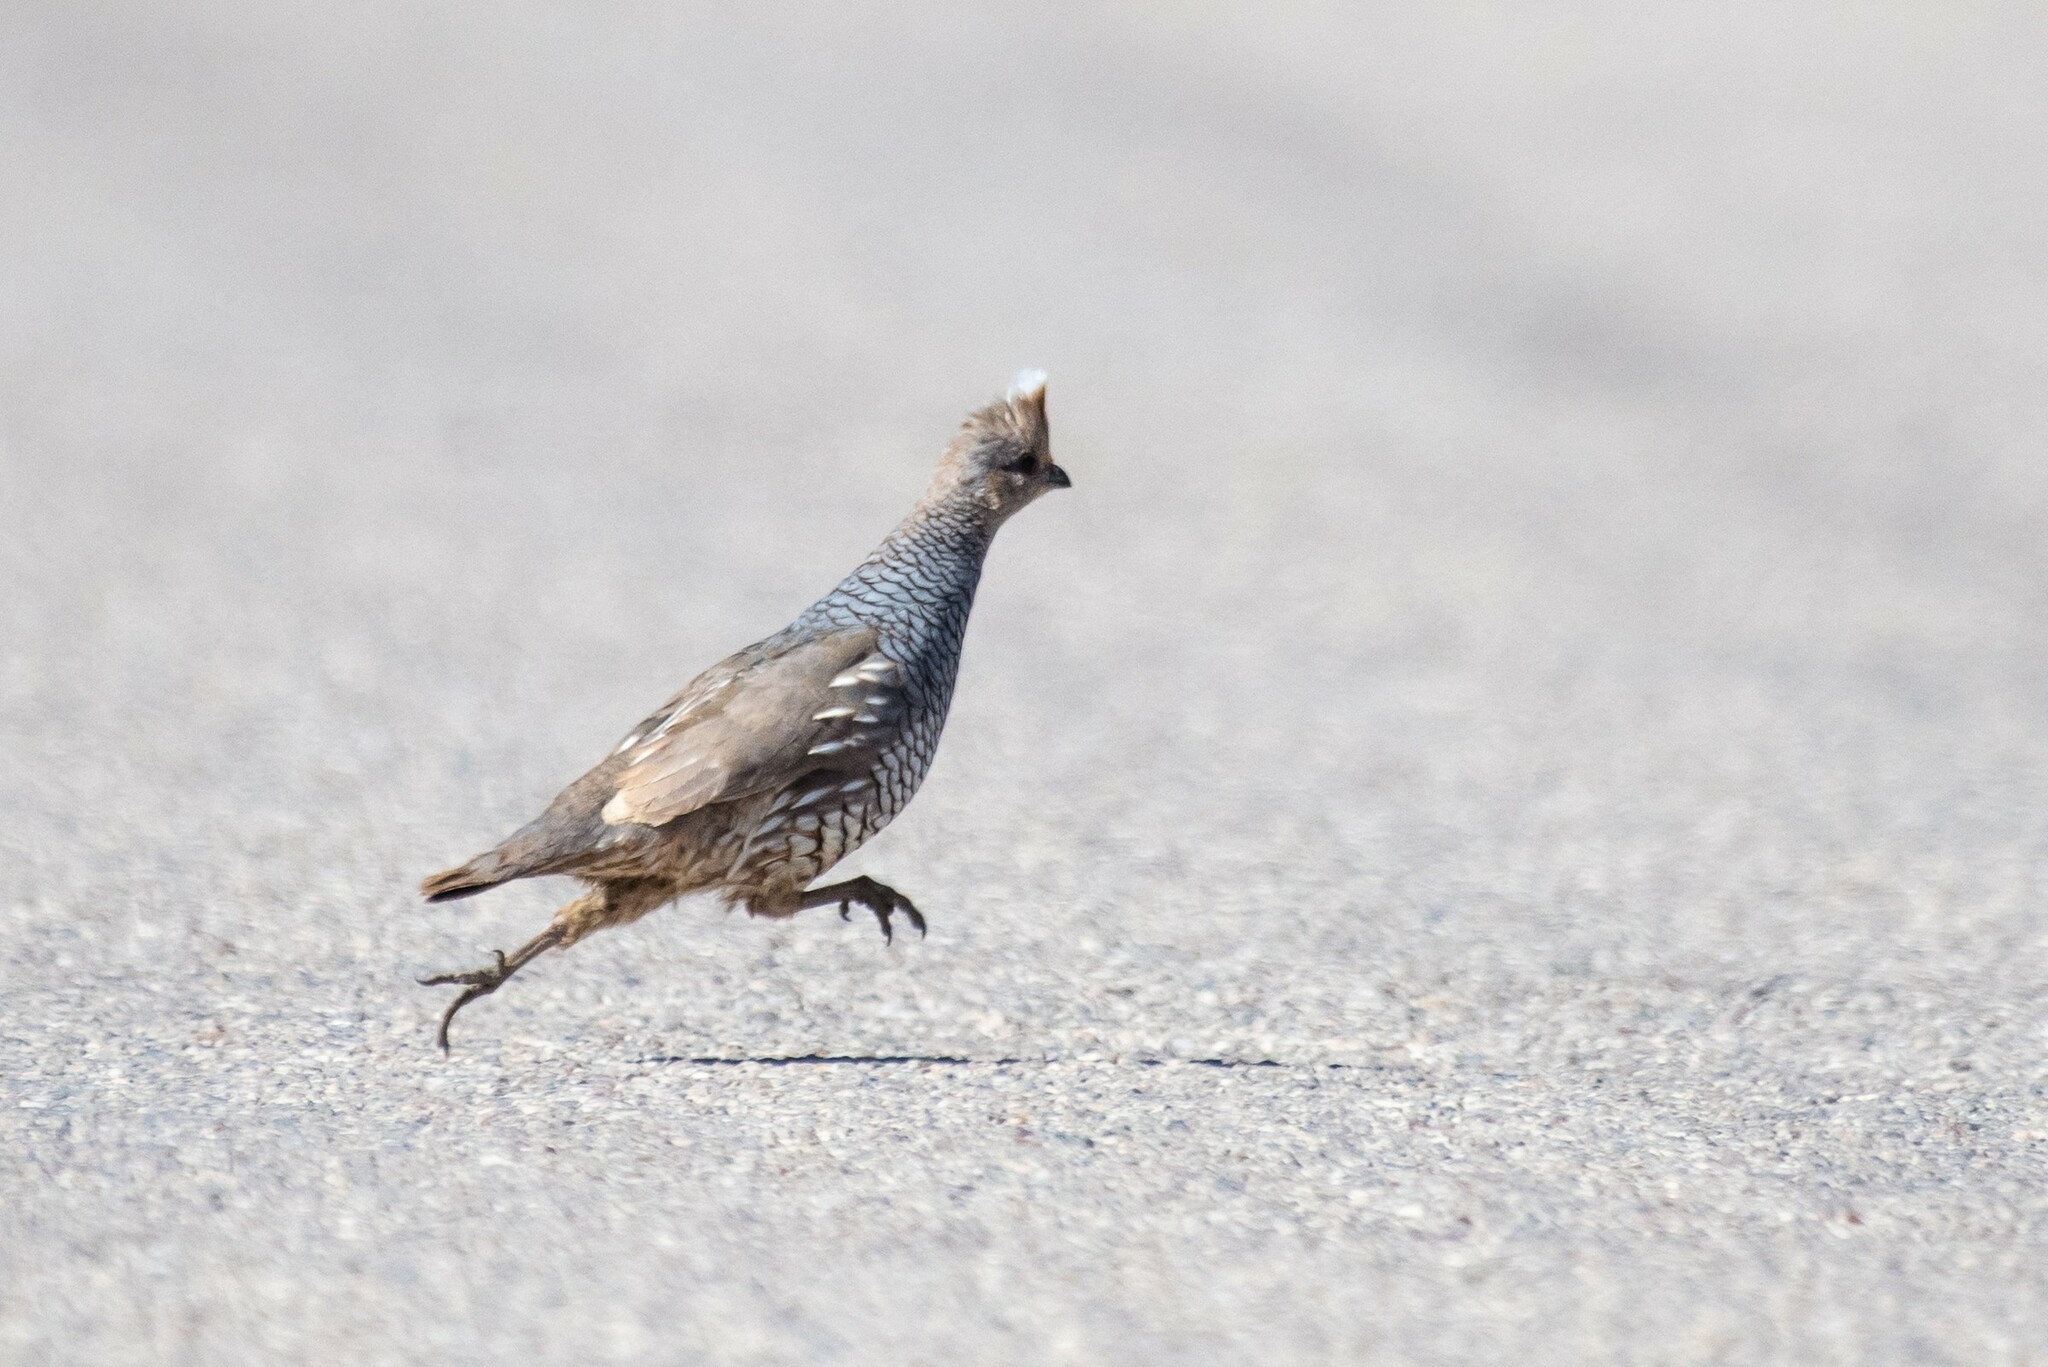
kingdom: Animalia
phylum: Chordata
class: Aves
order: Galliformes
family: Odontophoridae
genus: Callipepla
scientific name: Callipepla squamata
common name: Scaled quail
